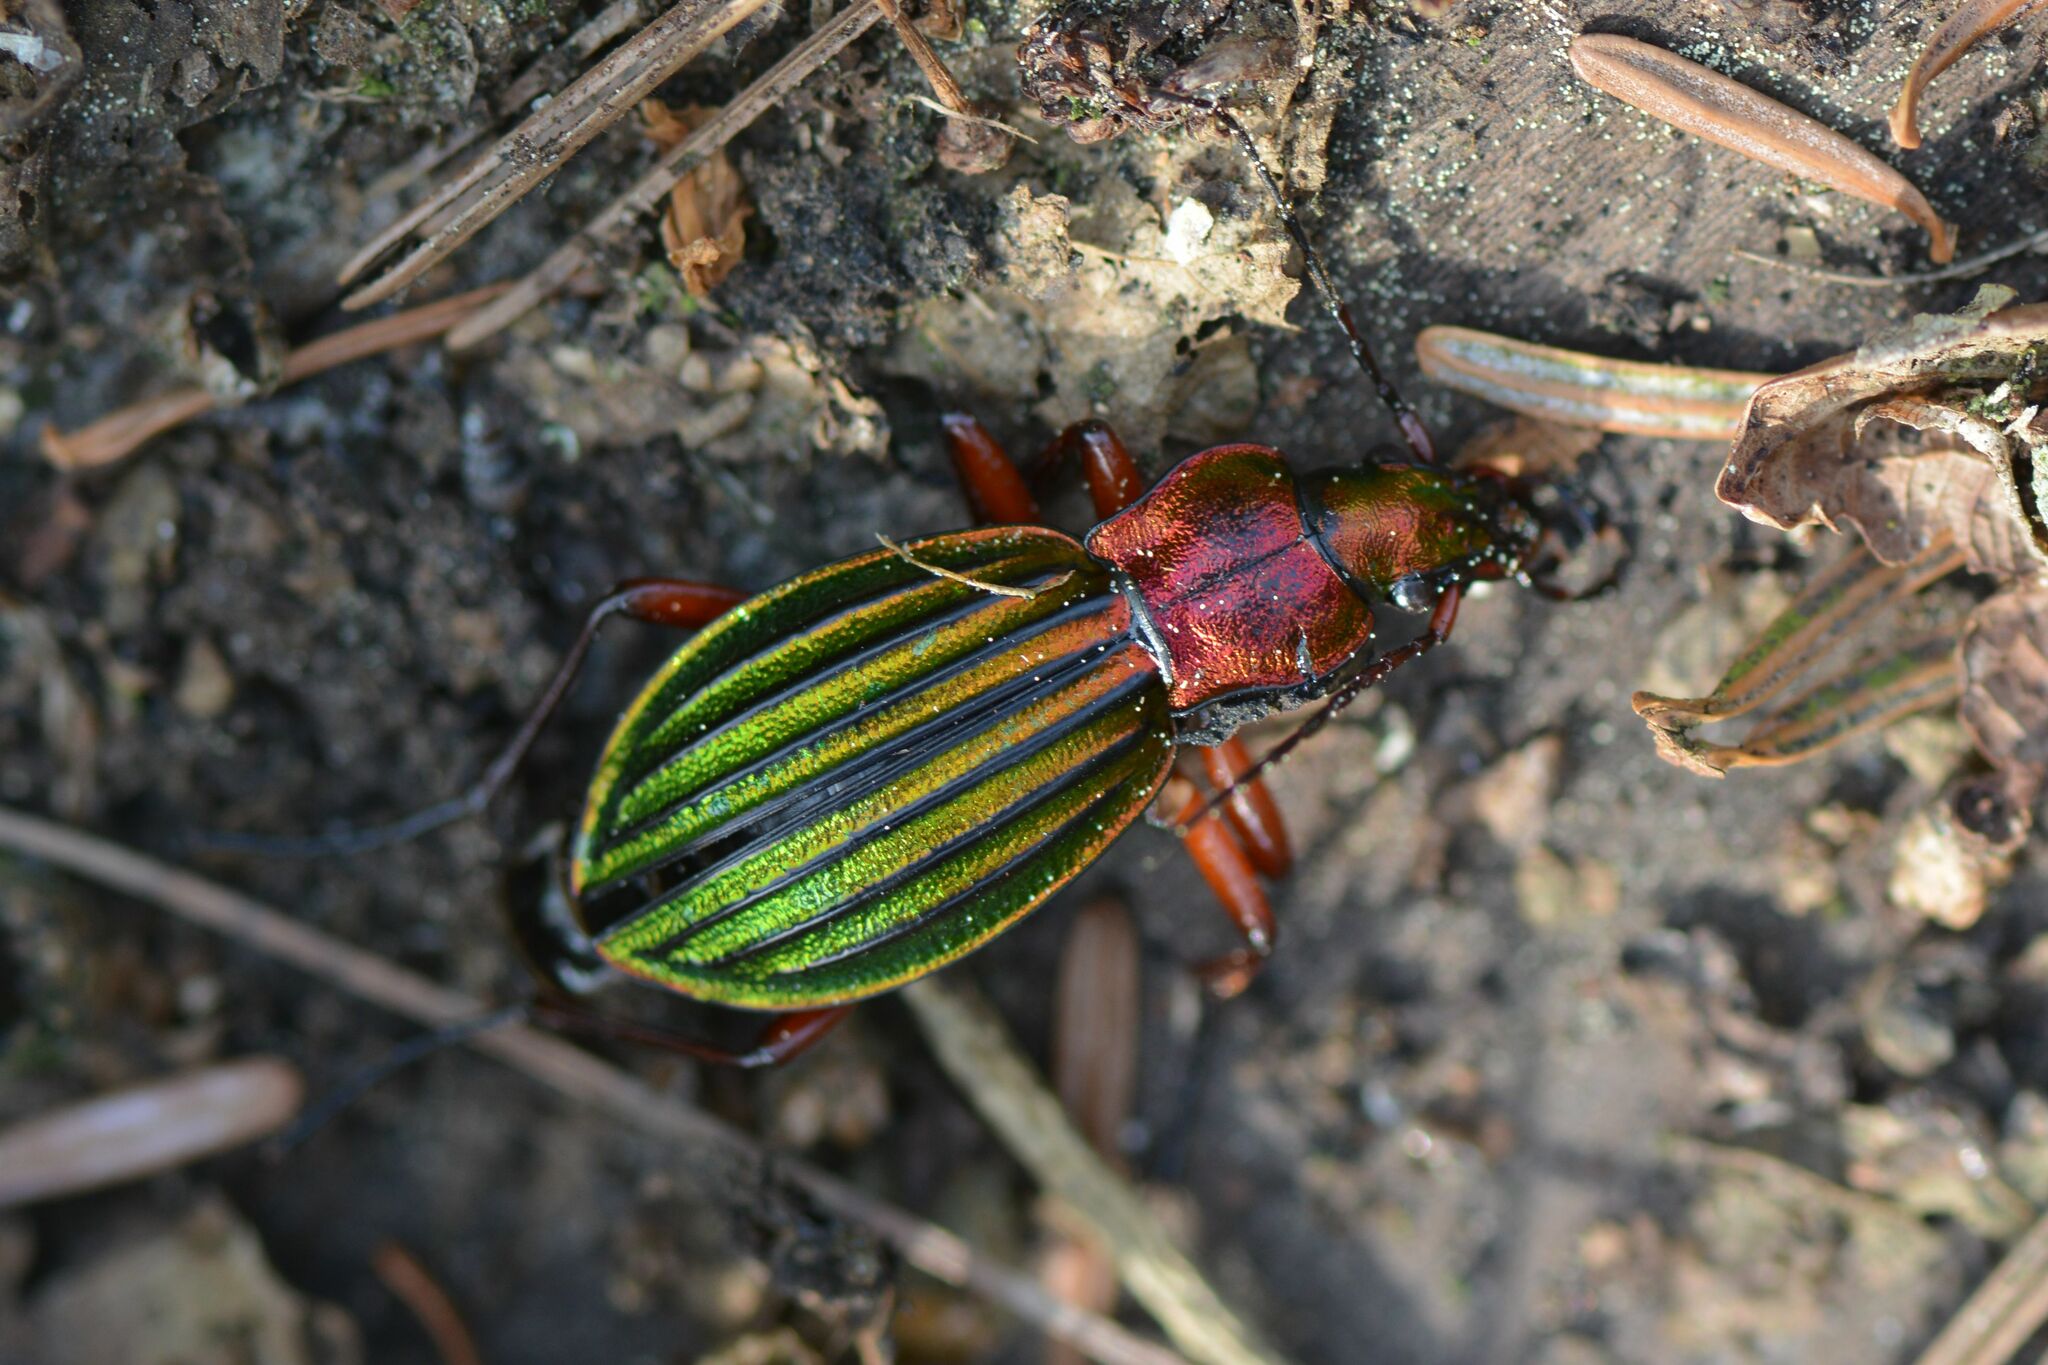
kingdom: Animalia
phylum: Arthropoda
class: Insecta
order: Coleoptera
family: Carabidae
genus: Carabus
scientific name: Carabus auronitens
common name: Carabus auronitens
